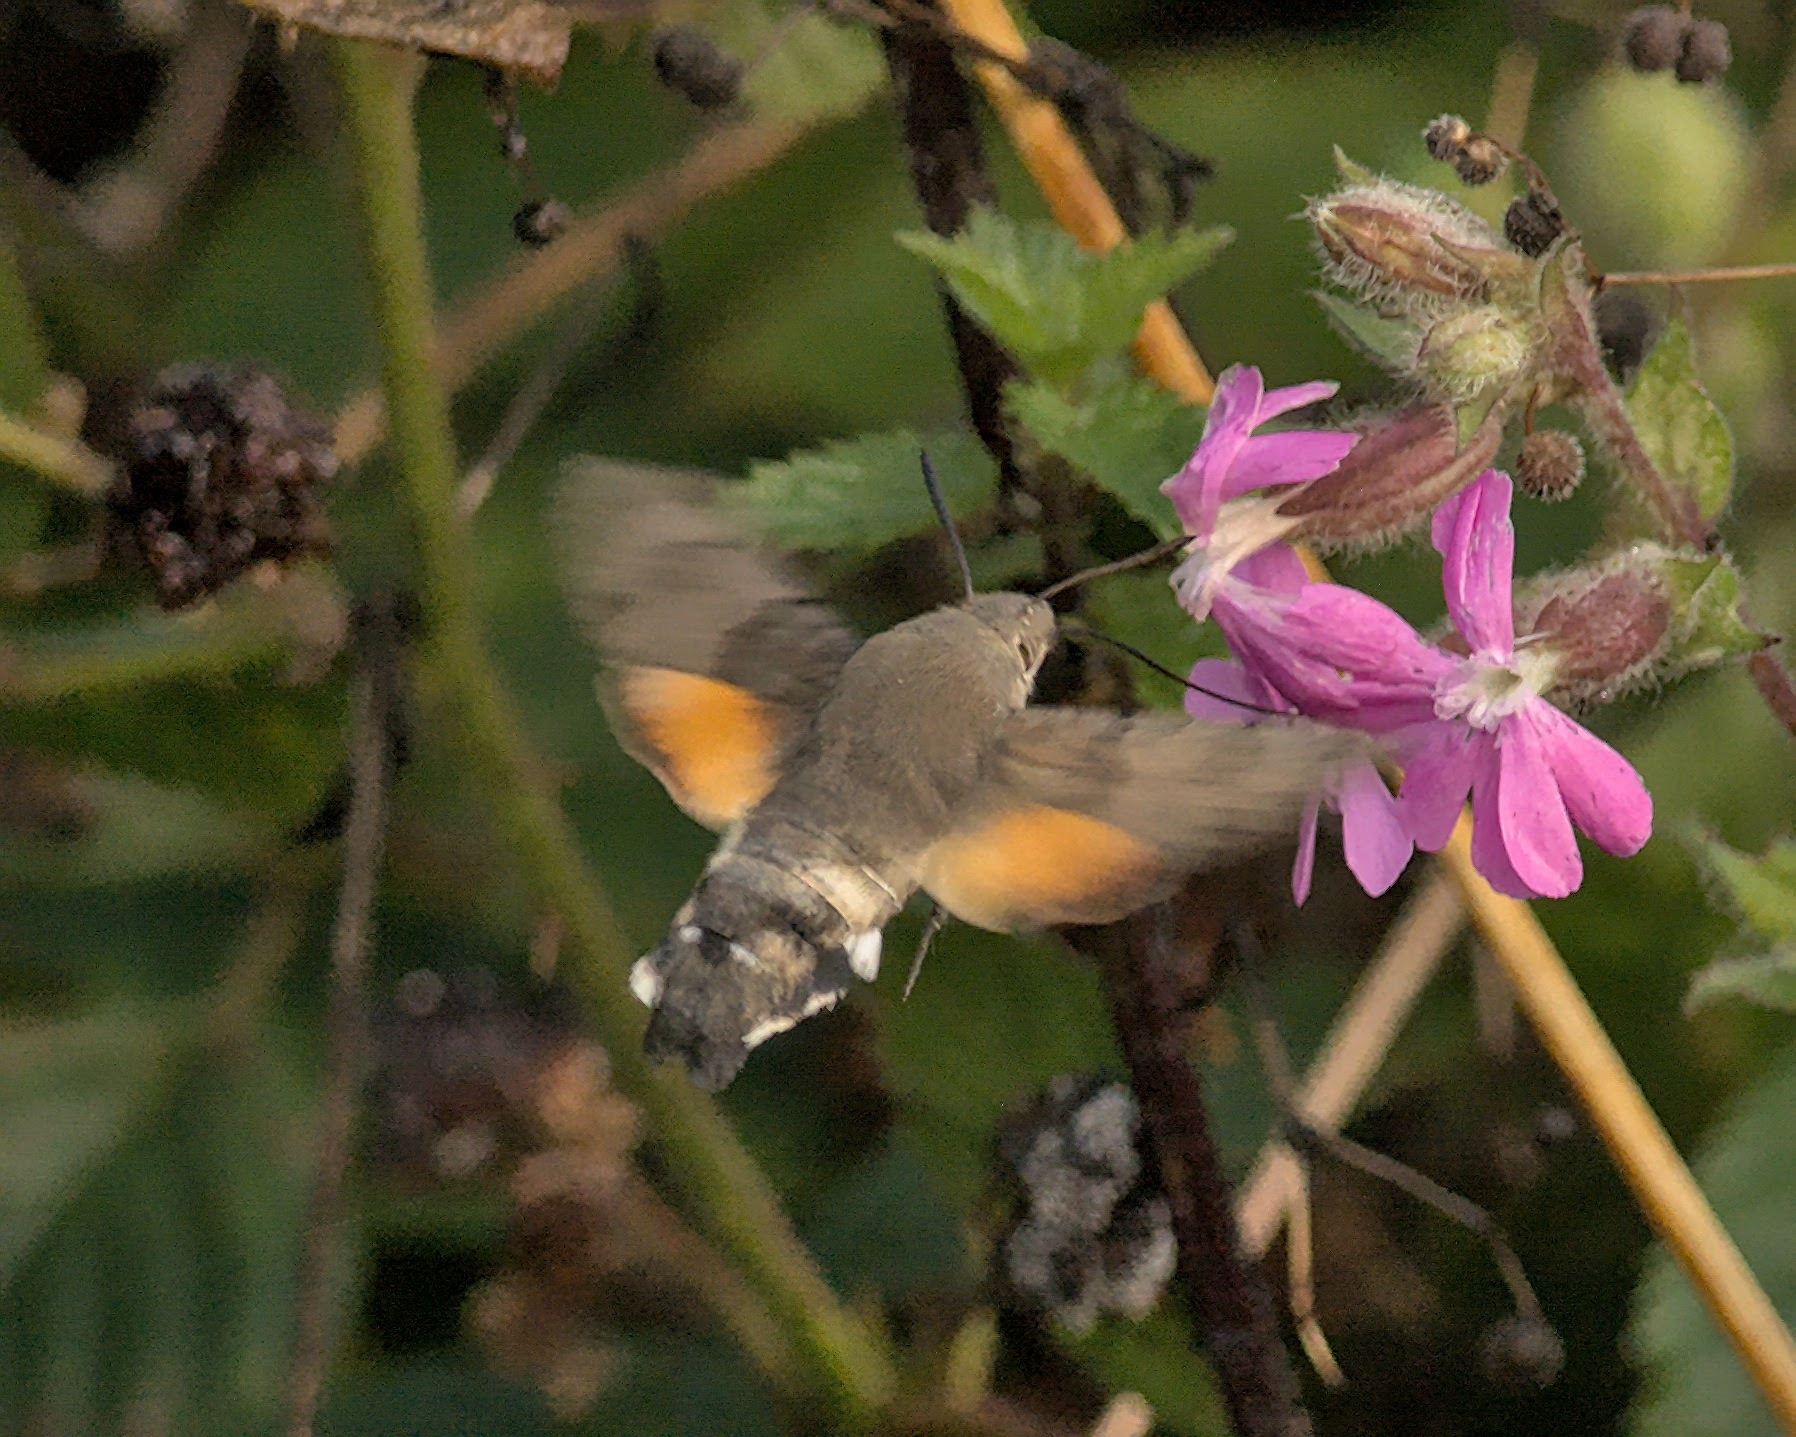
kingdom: Animalia
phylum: Arthropoda
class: Insecta
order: Lepidoptera
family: Sphingidae
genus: Macroglossum
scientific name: Macroglossum stellatarum
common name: Humming-bird hawk-moth
